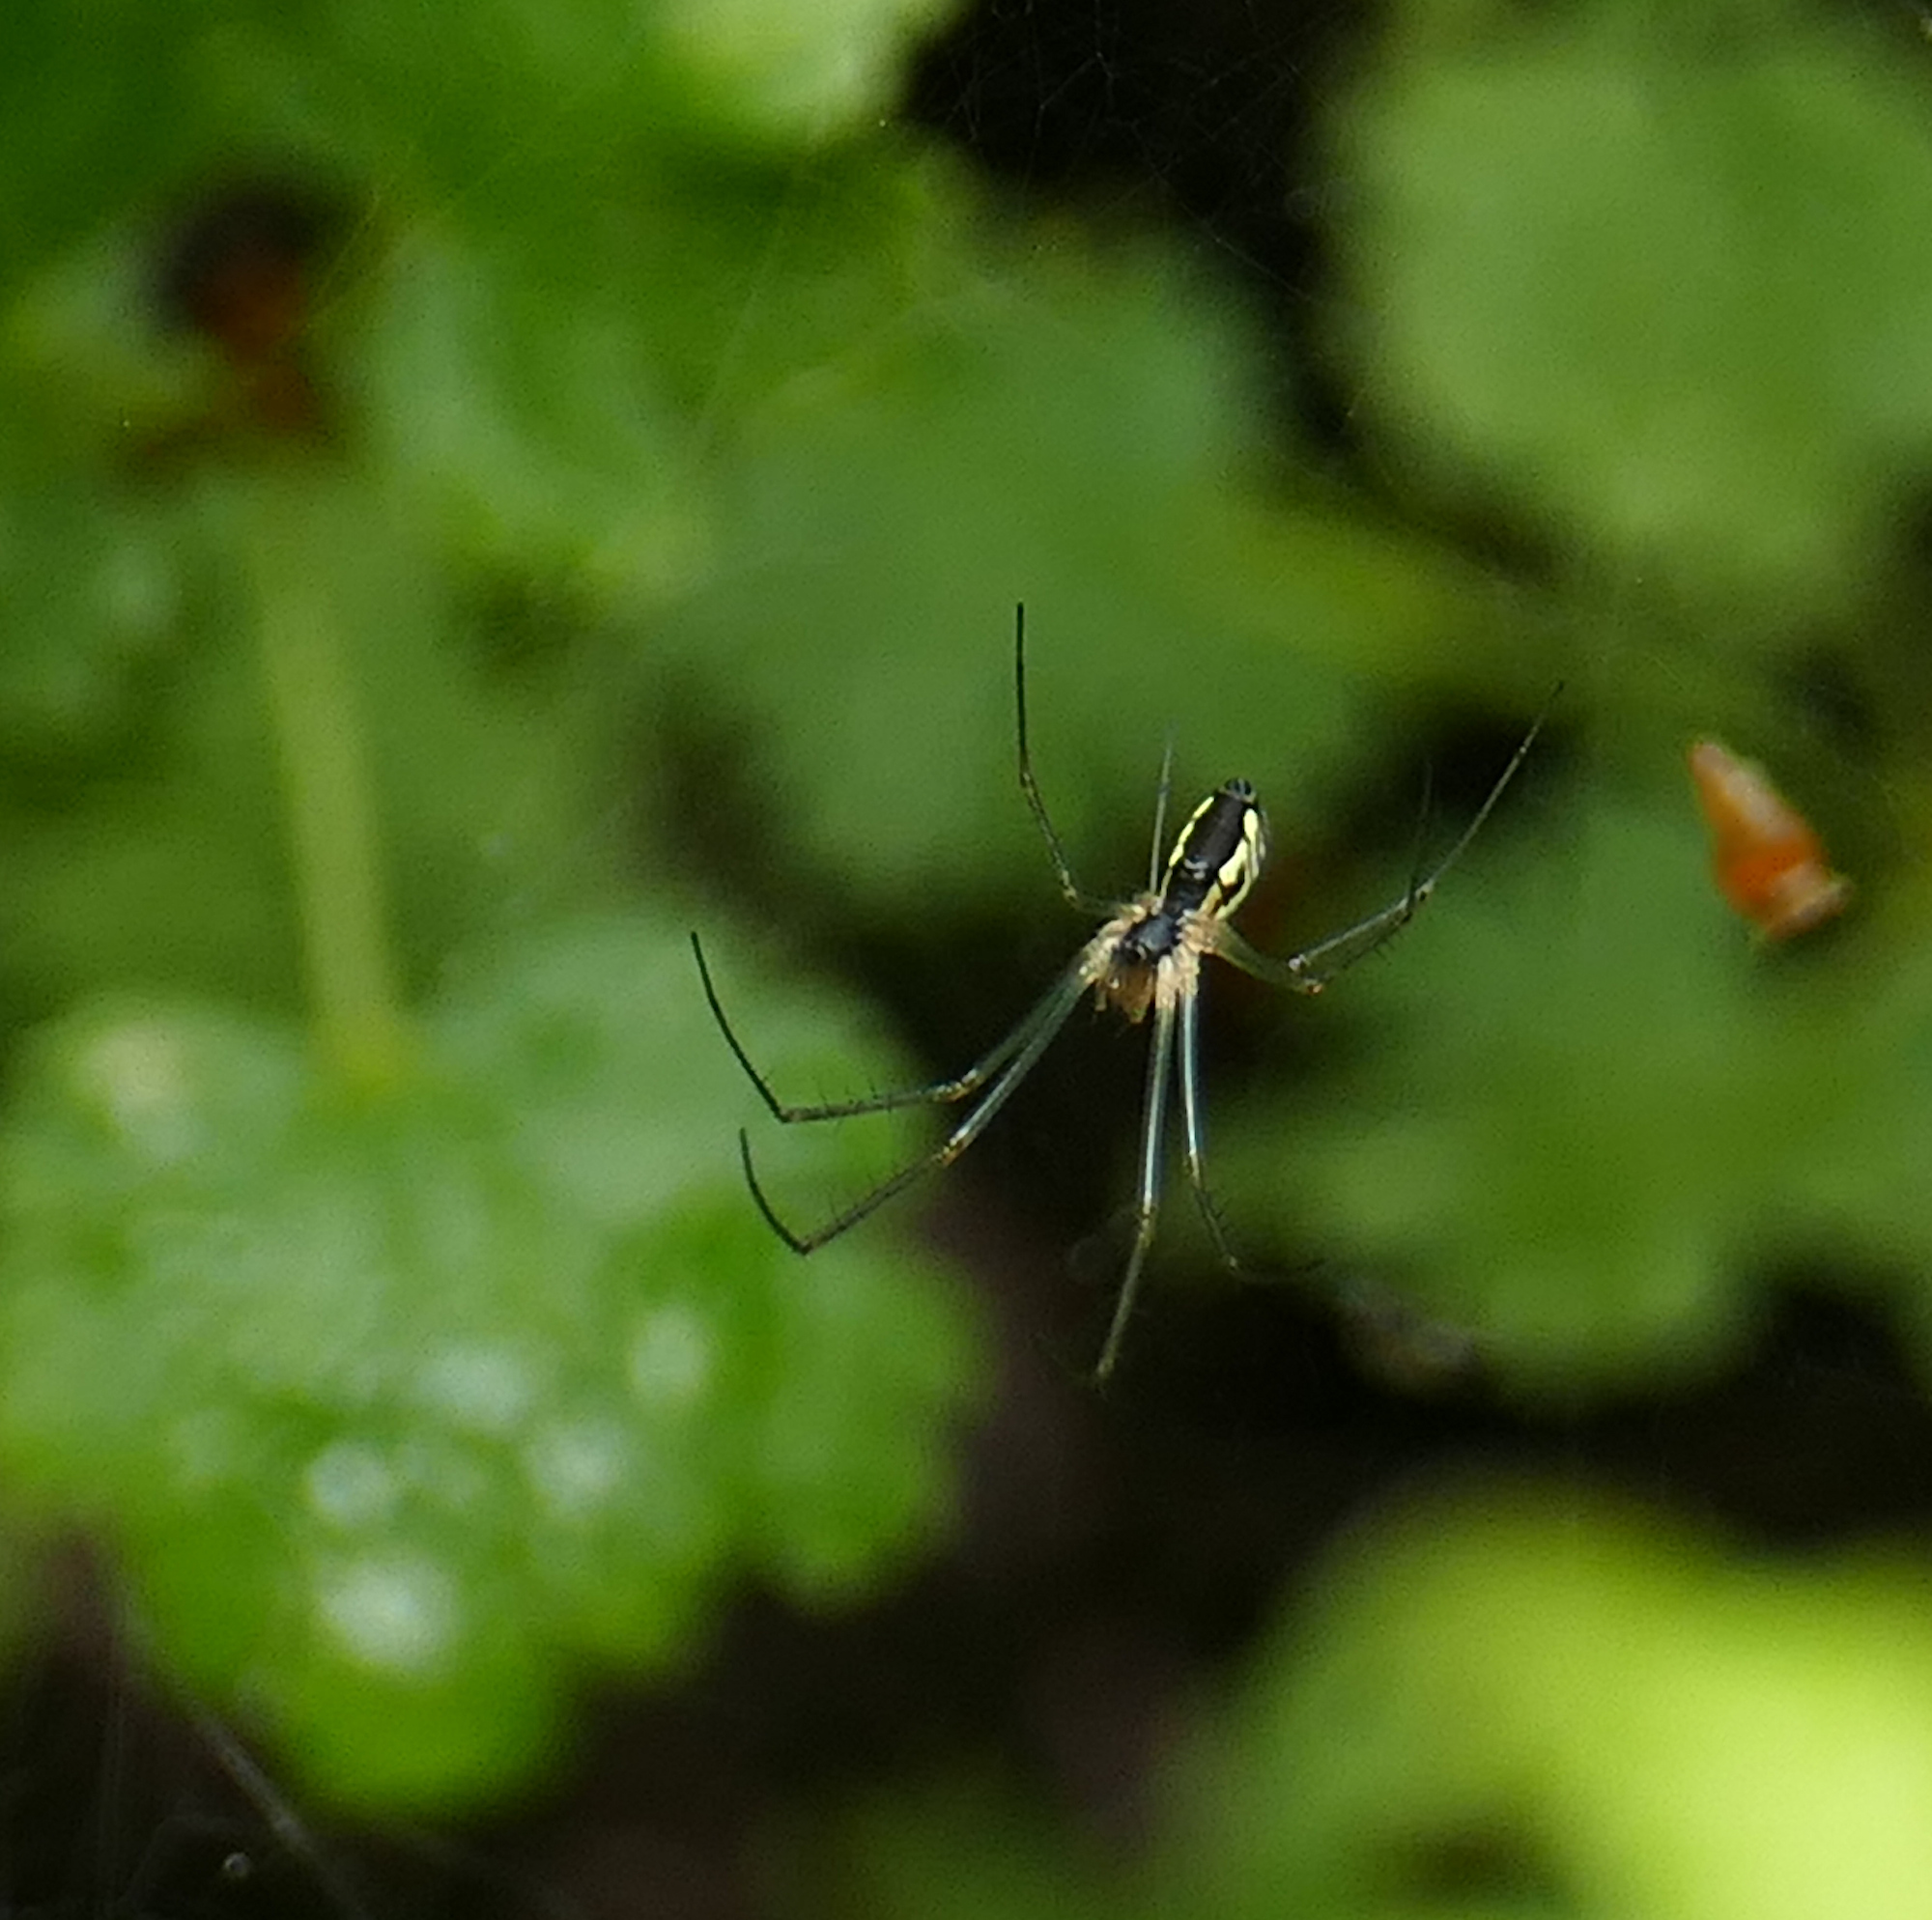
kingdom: Animalia
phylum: Arthropoda
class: Arachnida
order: Araneae
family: Linyphiidae
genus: Neriene
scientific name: Neriene radiata
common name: Filmy dome spider
